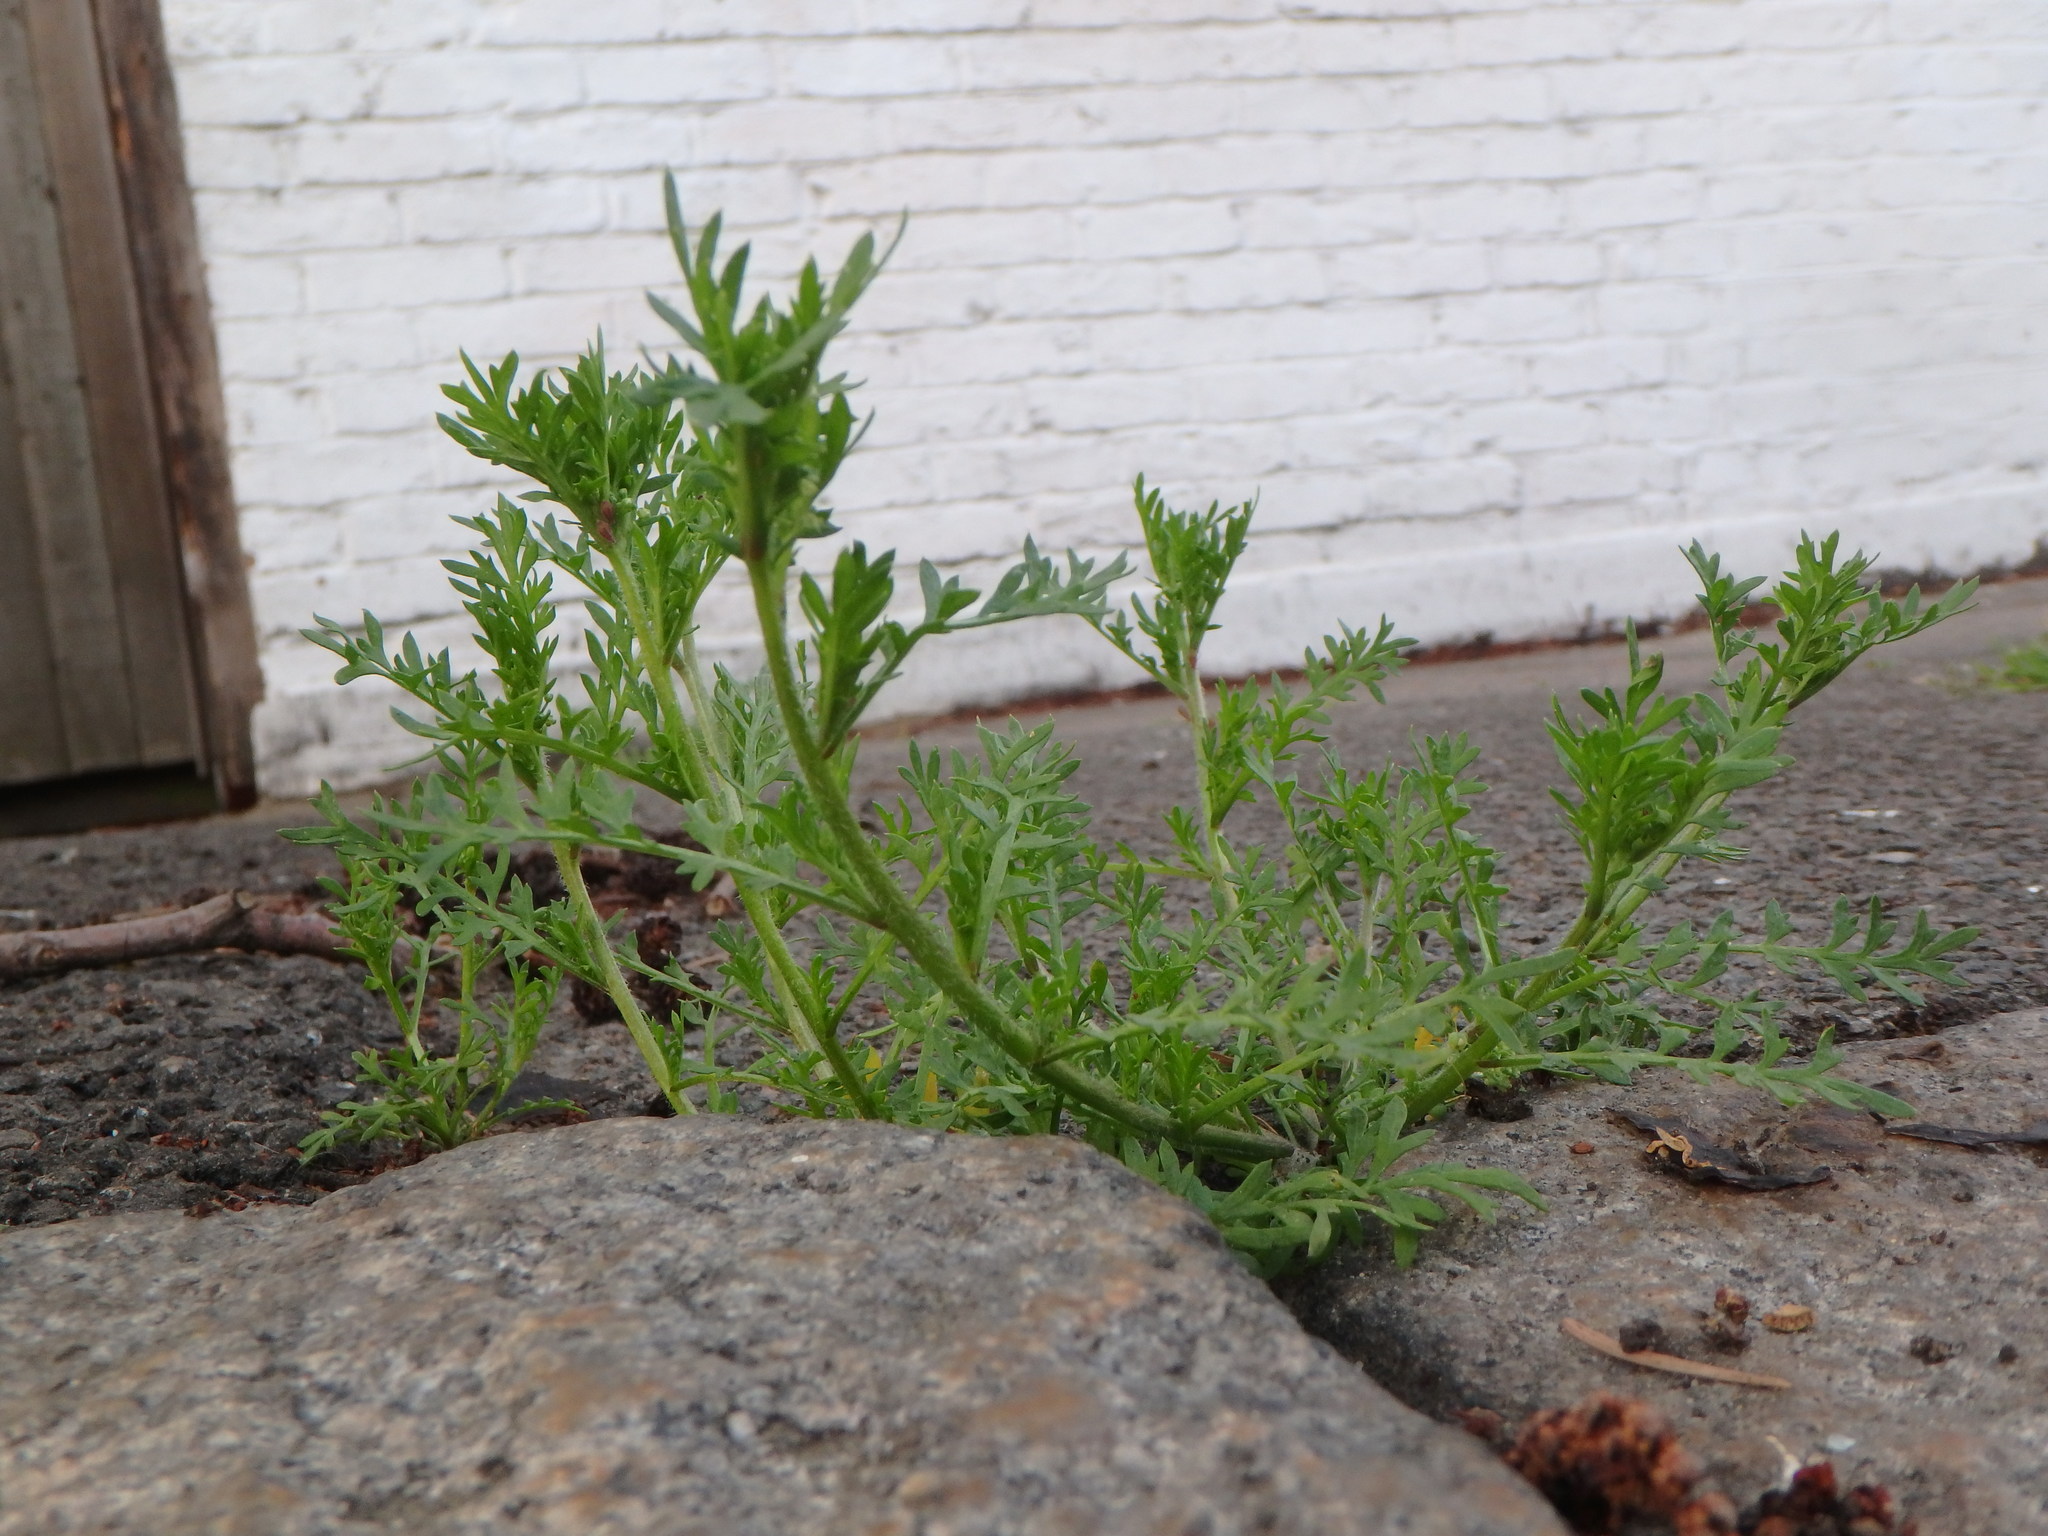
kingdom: Plantae
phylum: Tracheophyta
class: Magnoliopsida
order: Brassicales
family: Brassicaceae
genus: Lepidium
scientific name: Lepidium didymum
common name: Lesser swinecress
